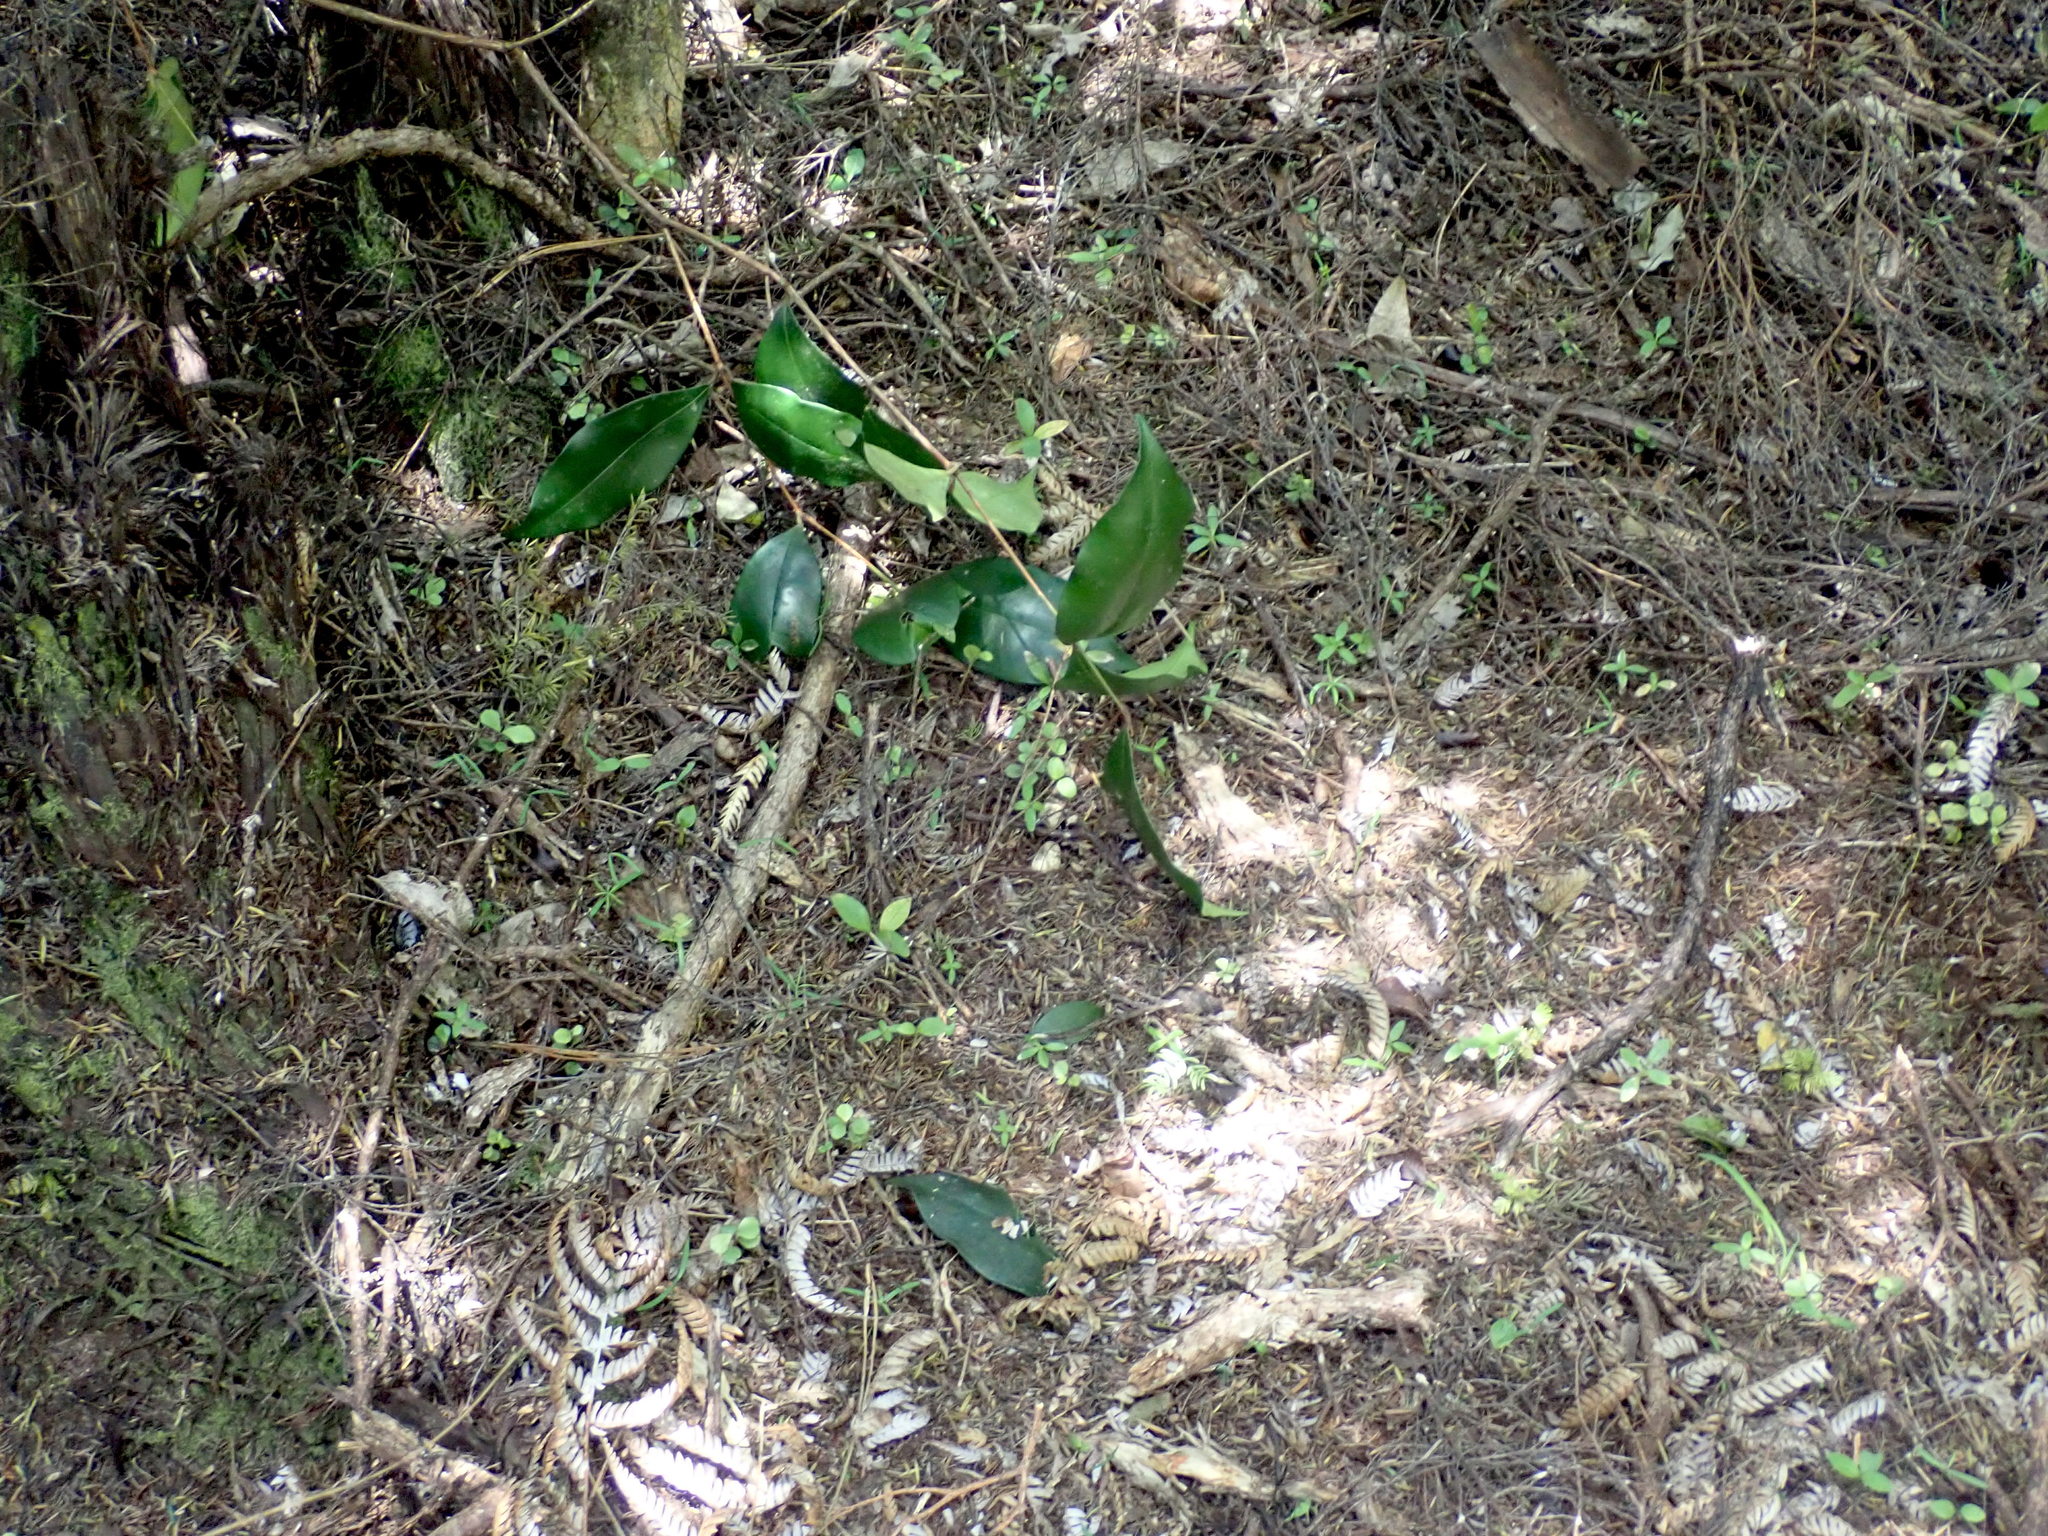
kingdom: Plantae
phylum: Tracheophyta
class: Liliopsida
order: Asparagales
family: Asparagaceae
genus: Asparagus
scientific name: Asparagus scandens
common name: Asparagus-fern
